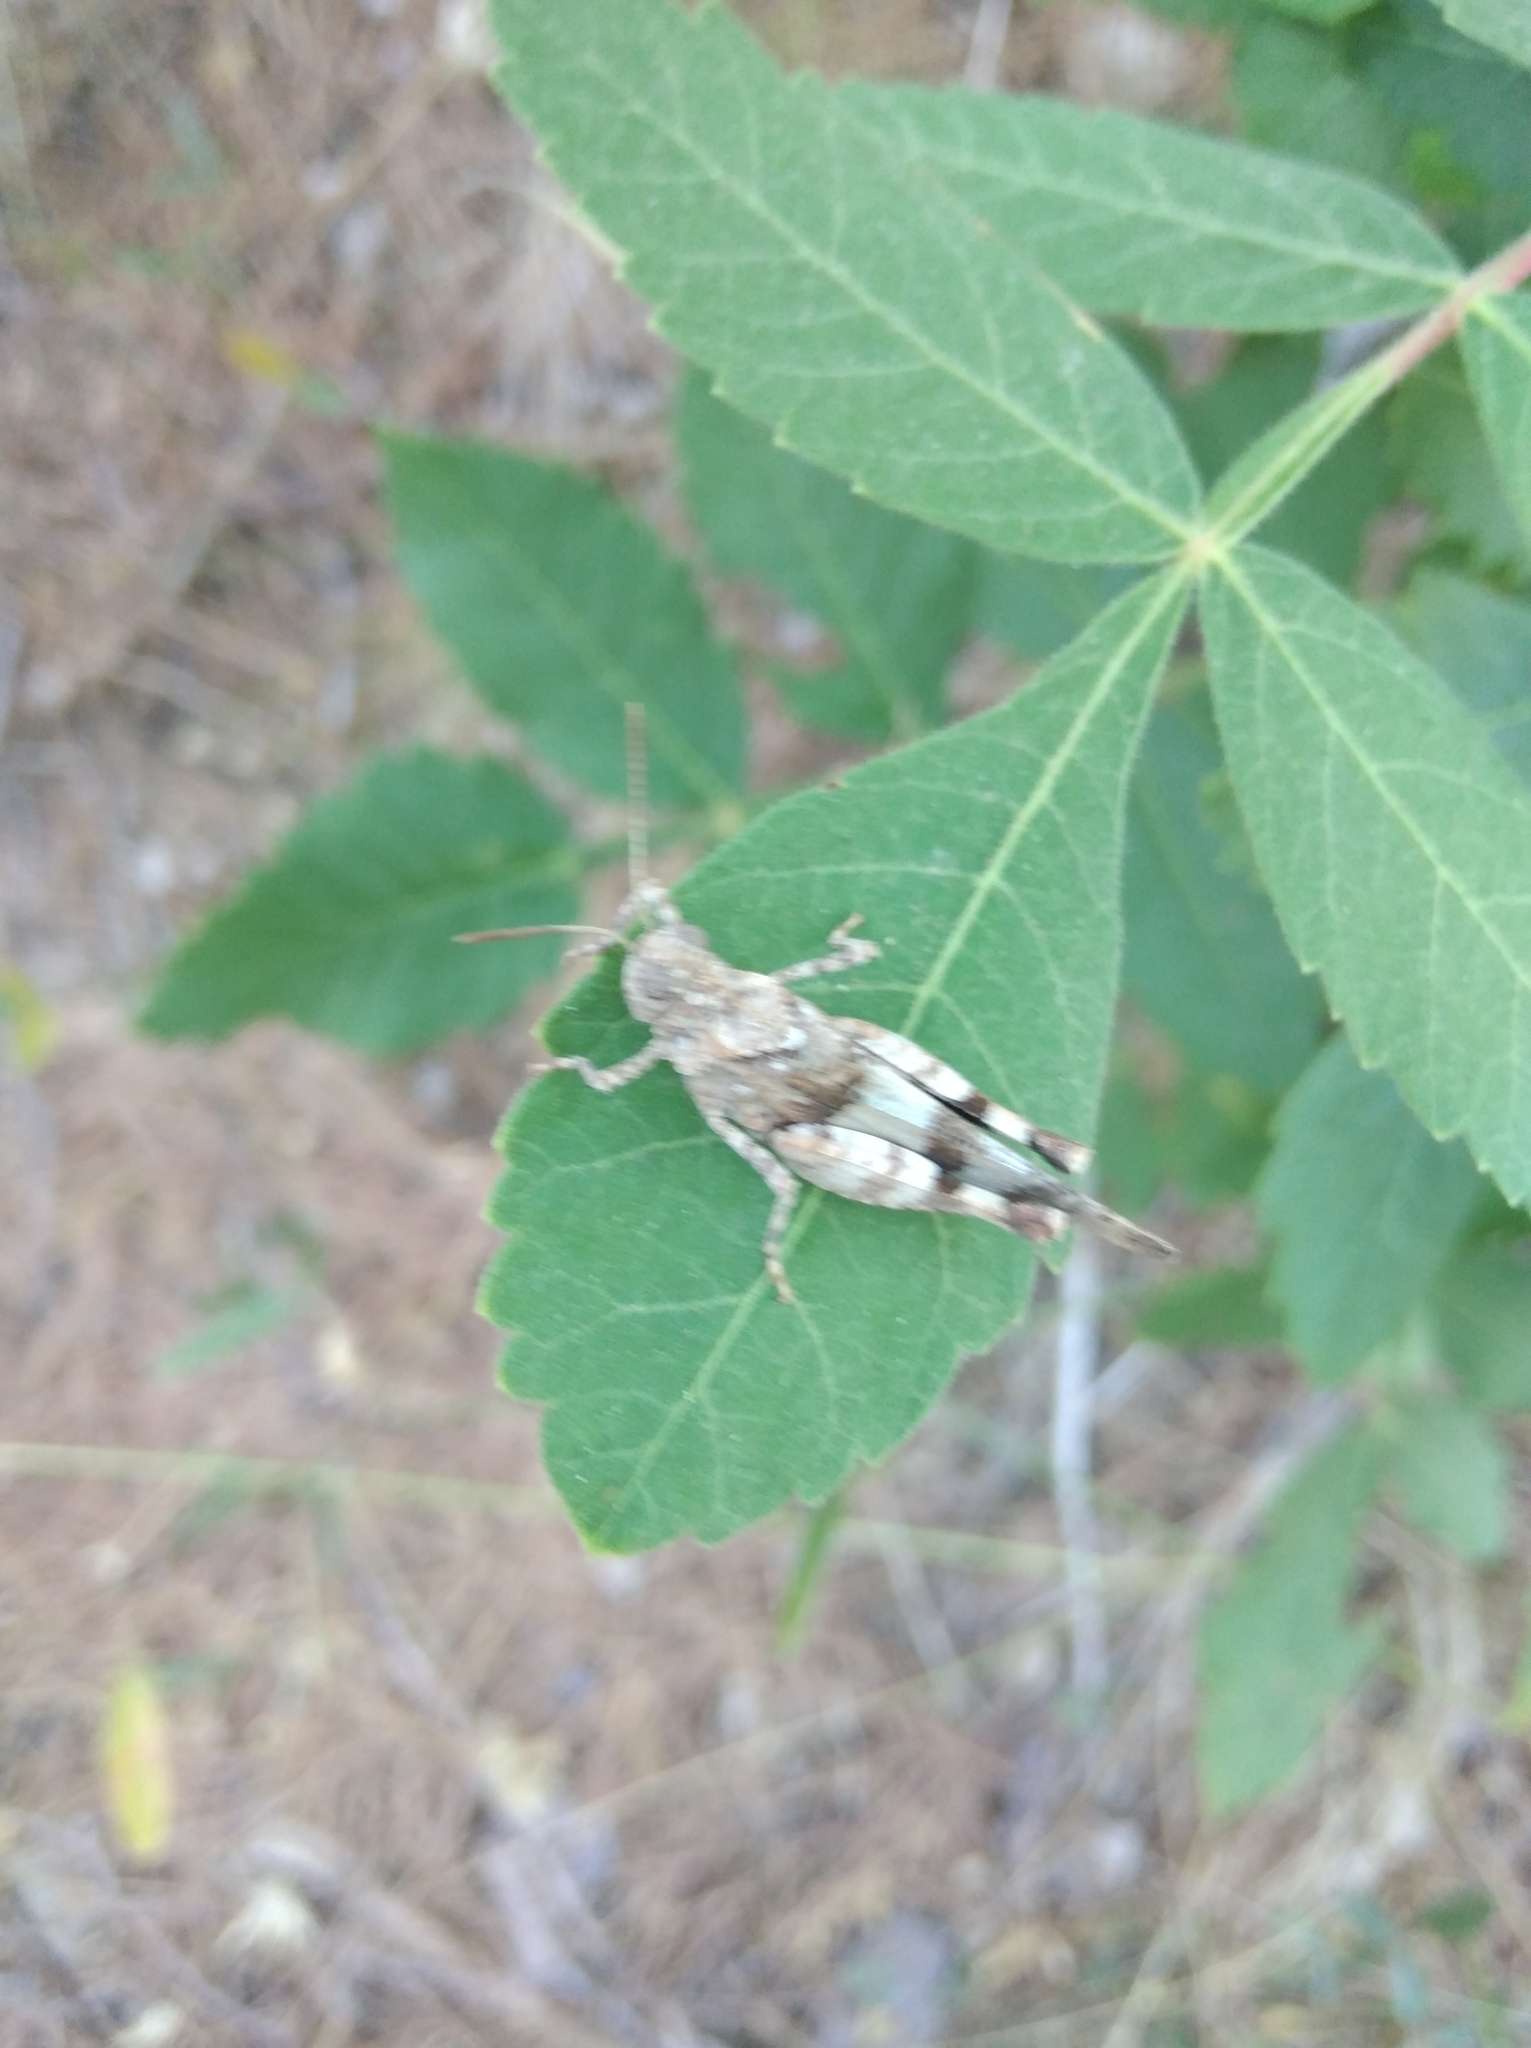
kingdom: Animalia
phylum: Arthropoda
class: Insecta
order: Orthoptera
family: Acrididae
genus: Oedipoda
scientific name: Oedipoda caerulescens
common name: Blue-winged grasshopper
